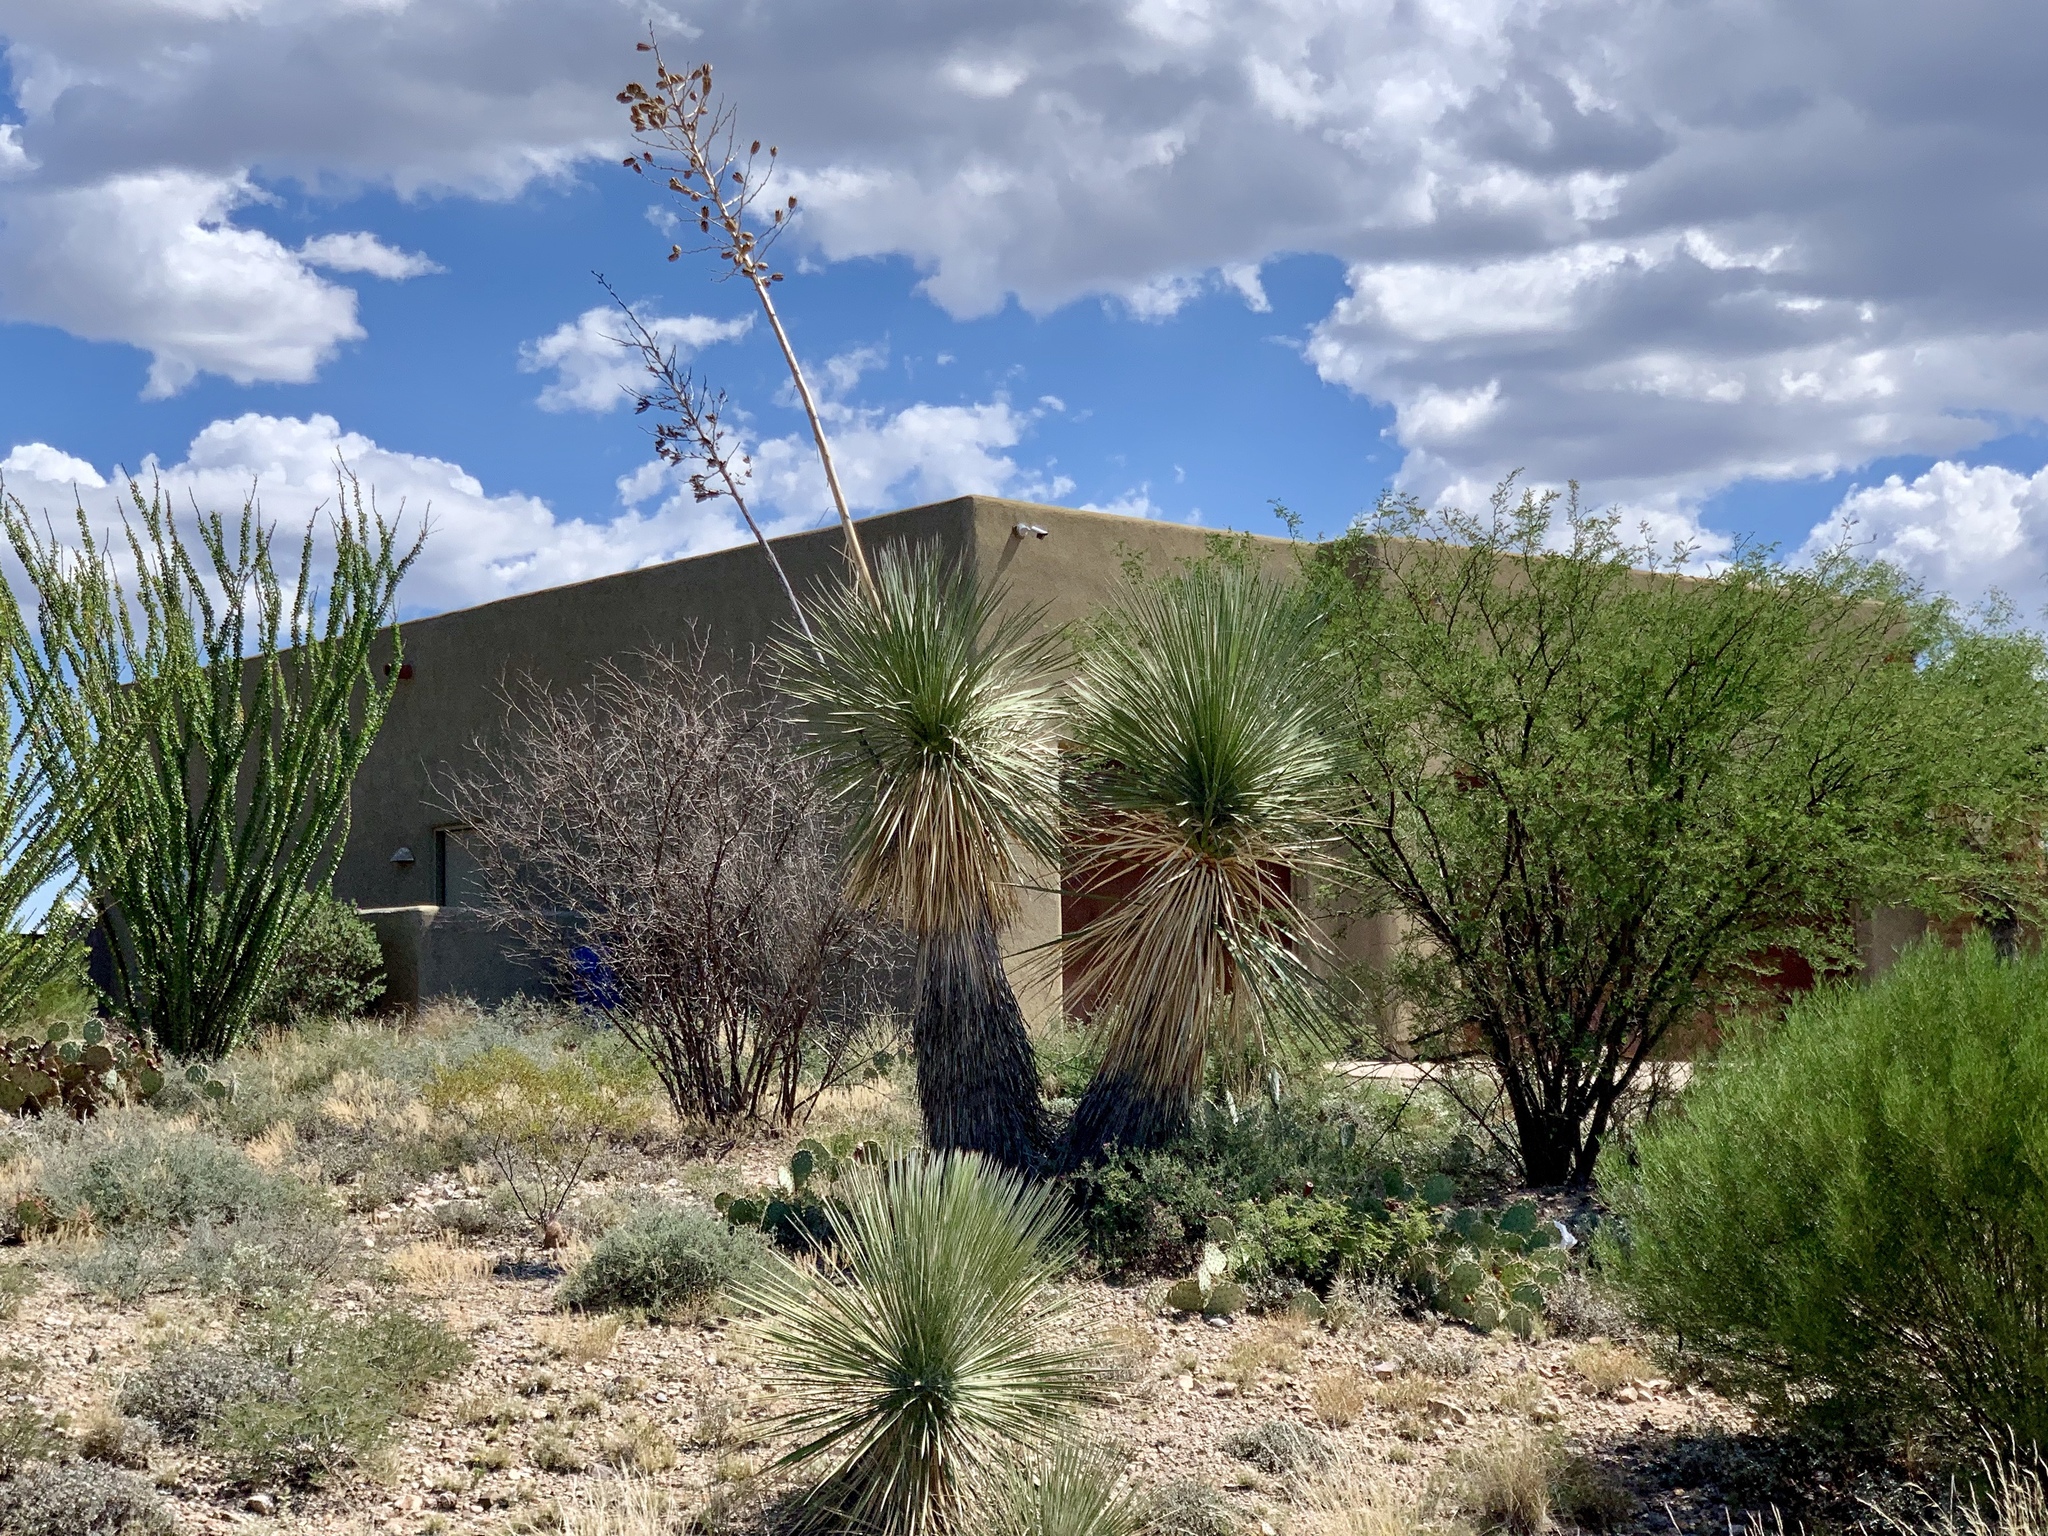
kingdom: Plantae
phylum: Tracheophyta
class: Liliopsida
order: Asparagales
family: Asparagaceae
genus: Yucca
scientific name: Yucca elata
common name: Palmella
